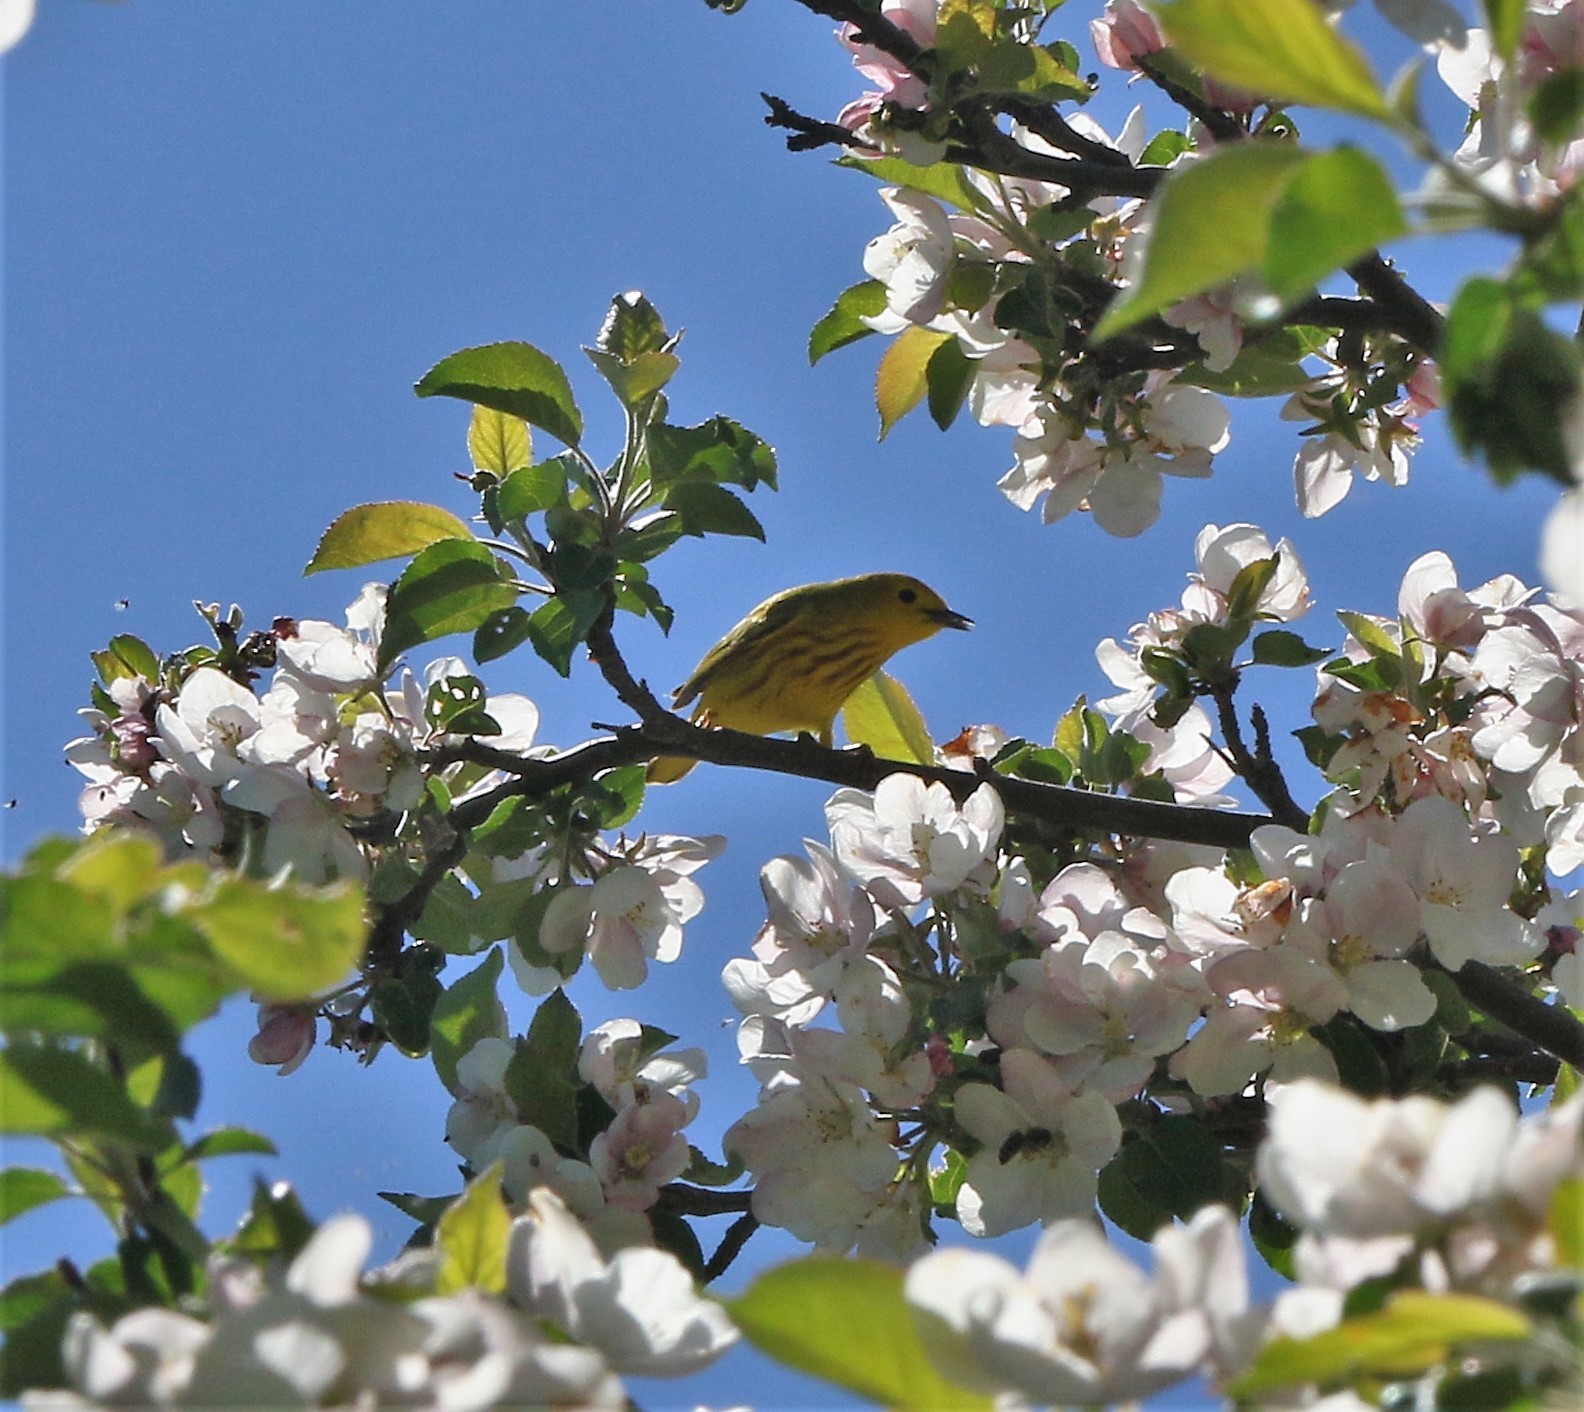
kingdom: Animalia
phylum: Chordata
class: Aves
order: Passeriformes
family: Parulidae
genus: Setophaga
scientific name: Setophaga petechia
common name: Yellow warbler
